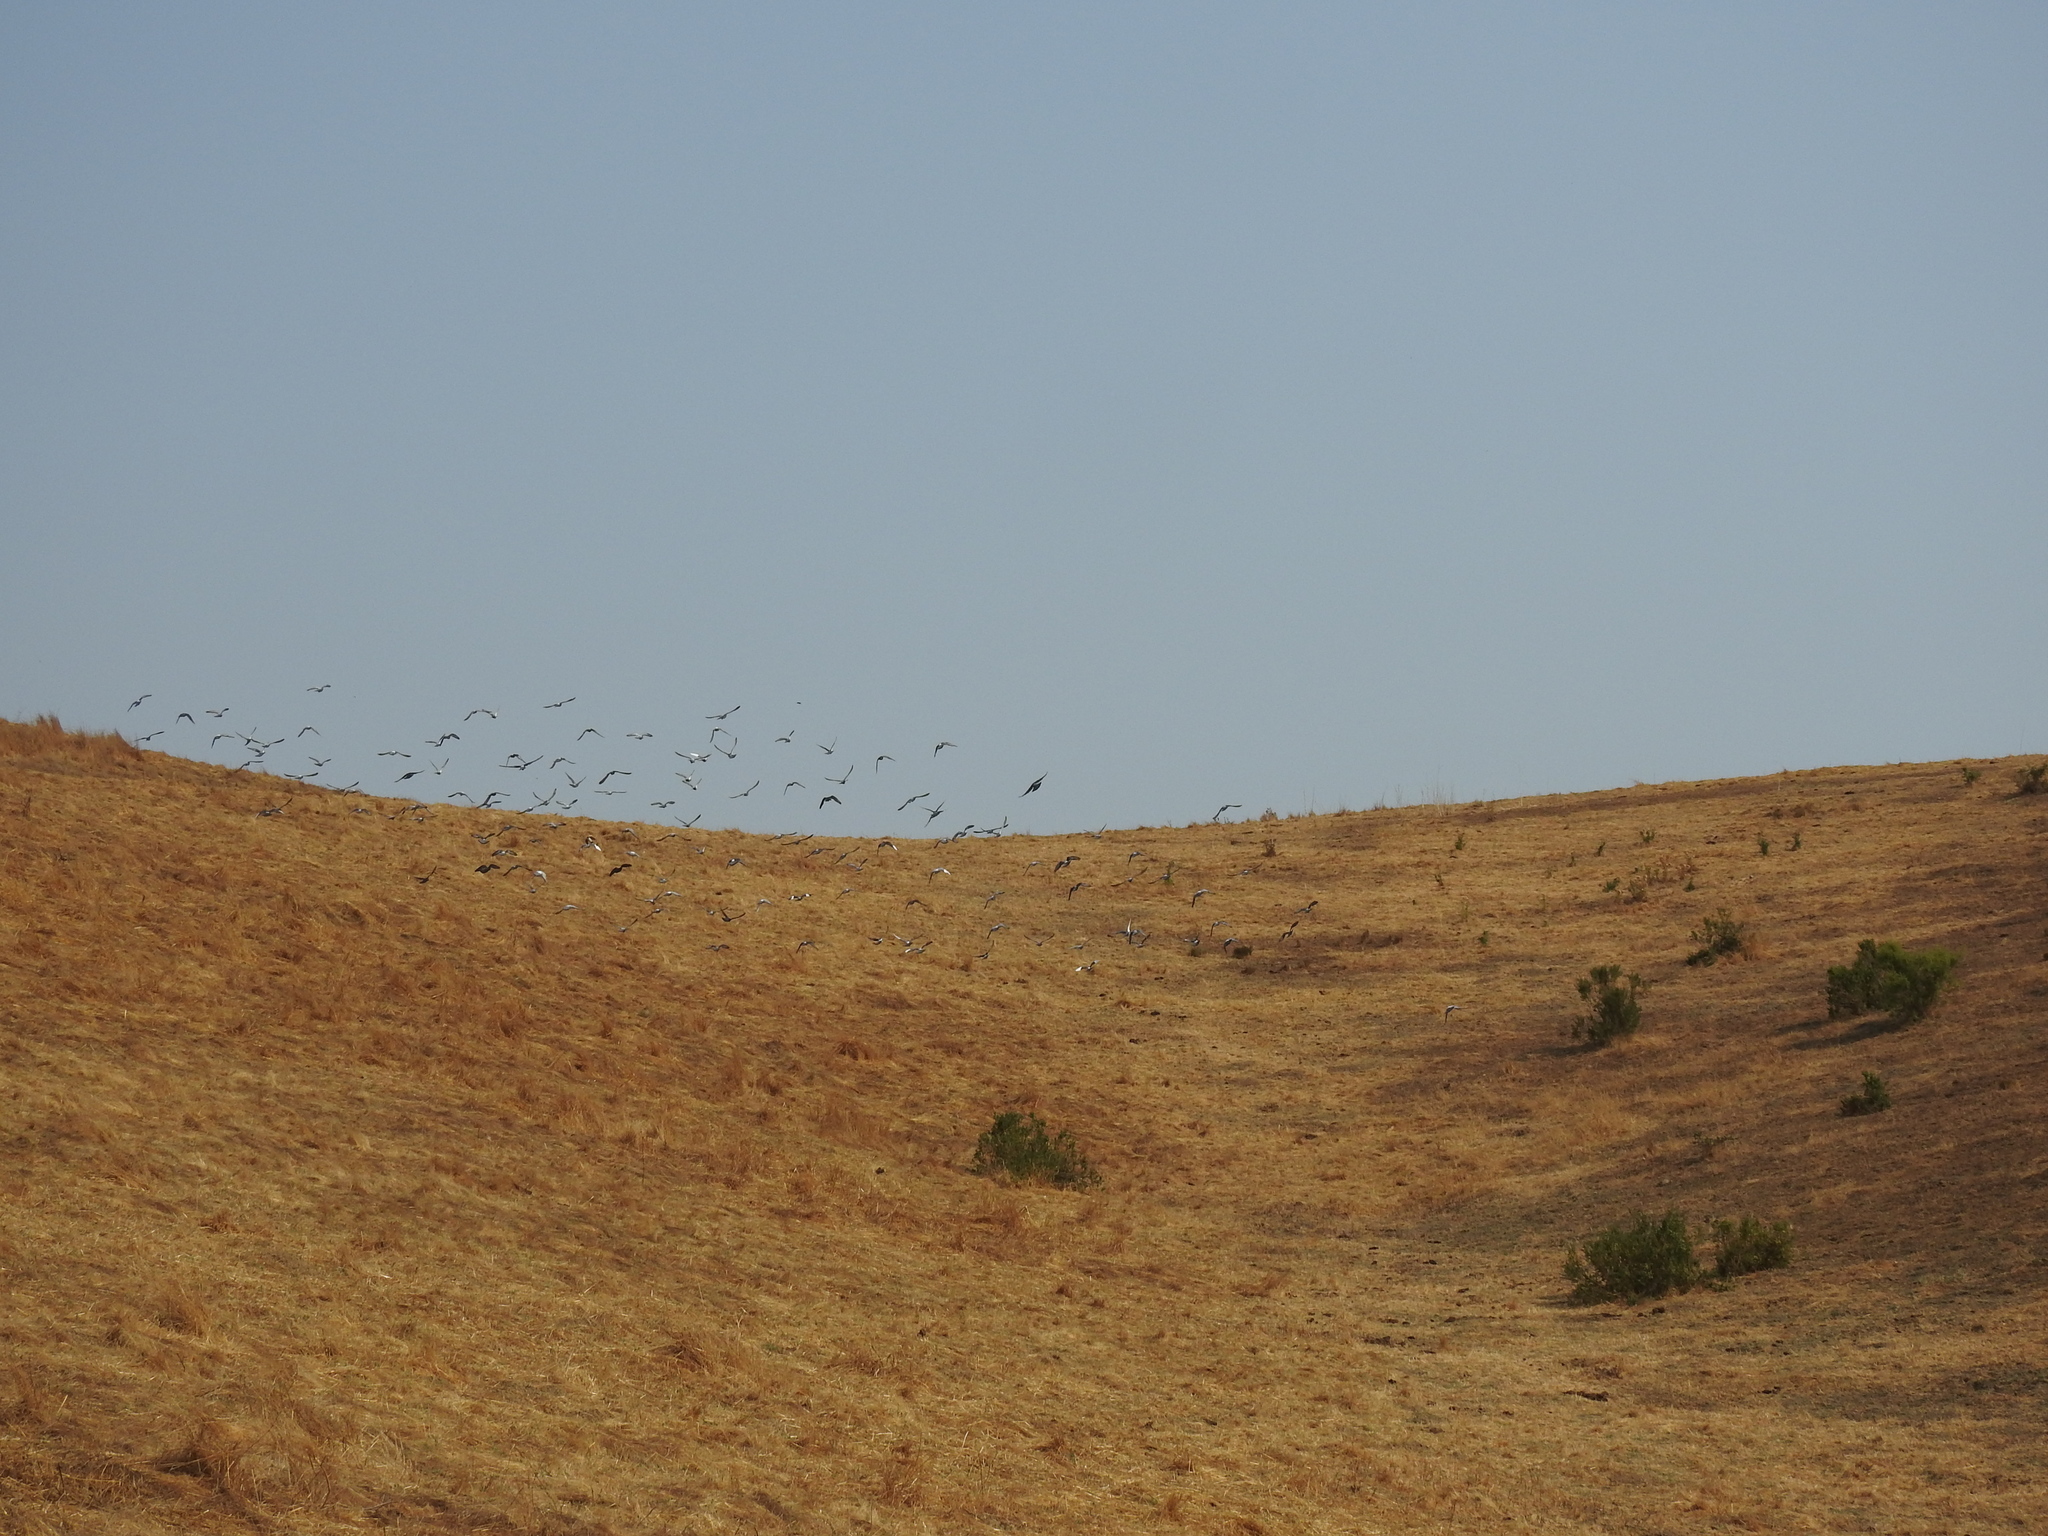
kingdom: Animalia
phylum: Chordata
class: Aves
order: Columbiformes
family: Columbidae
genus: Columba
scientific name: Columba livia
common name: Rock pigeon
